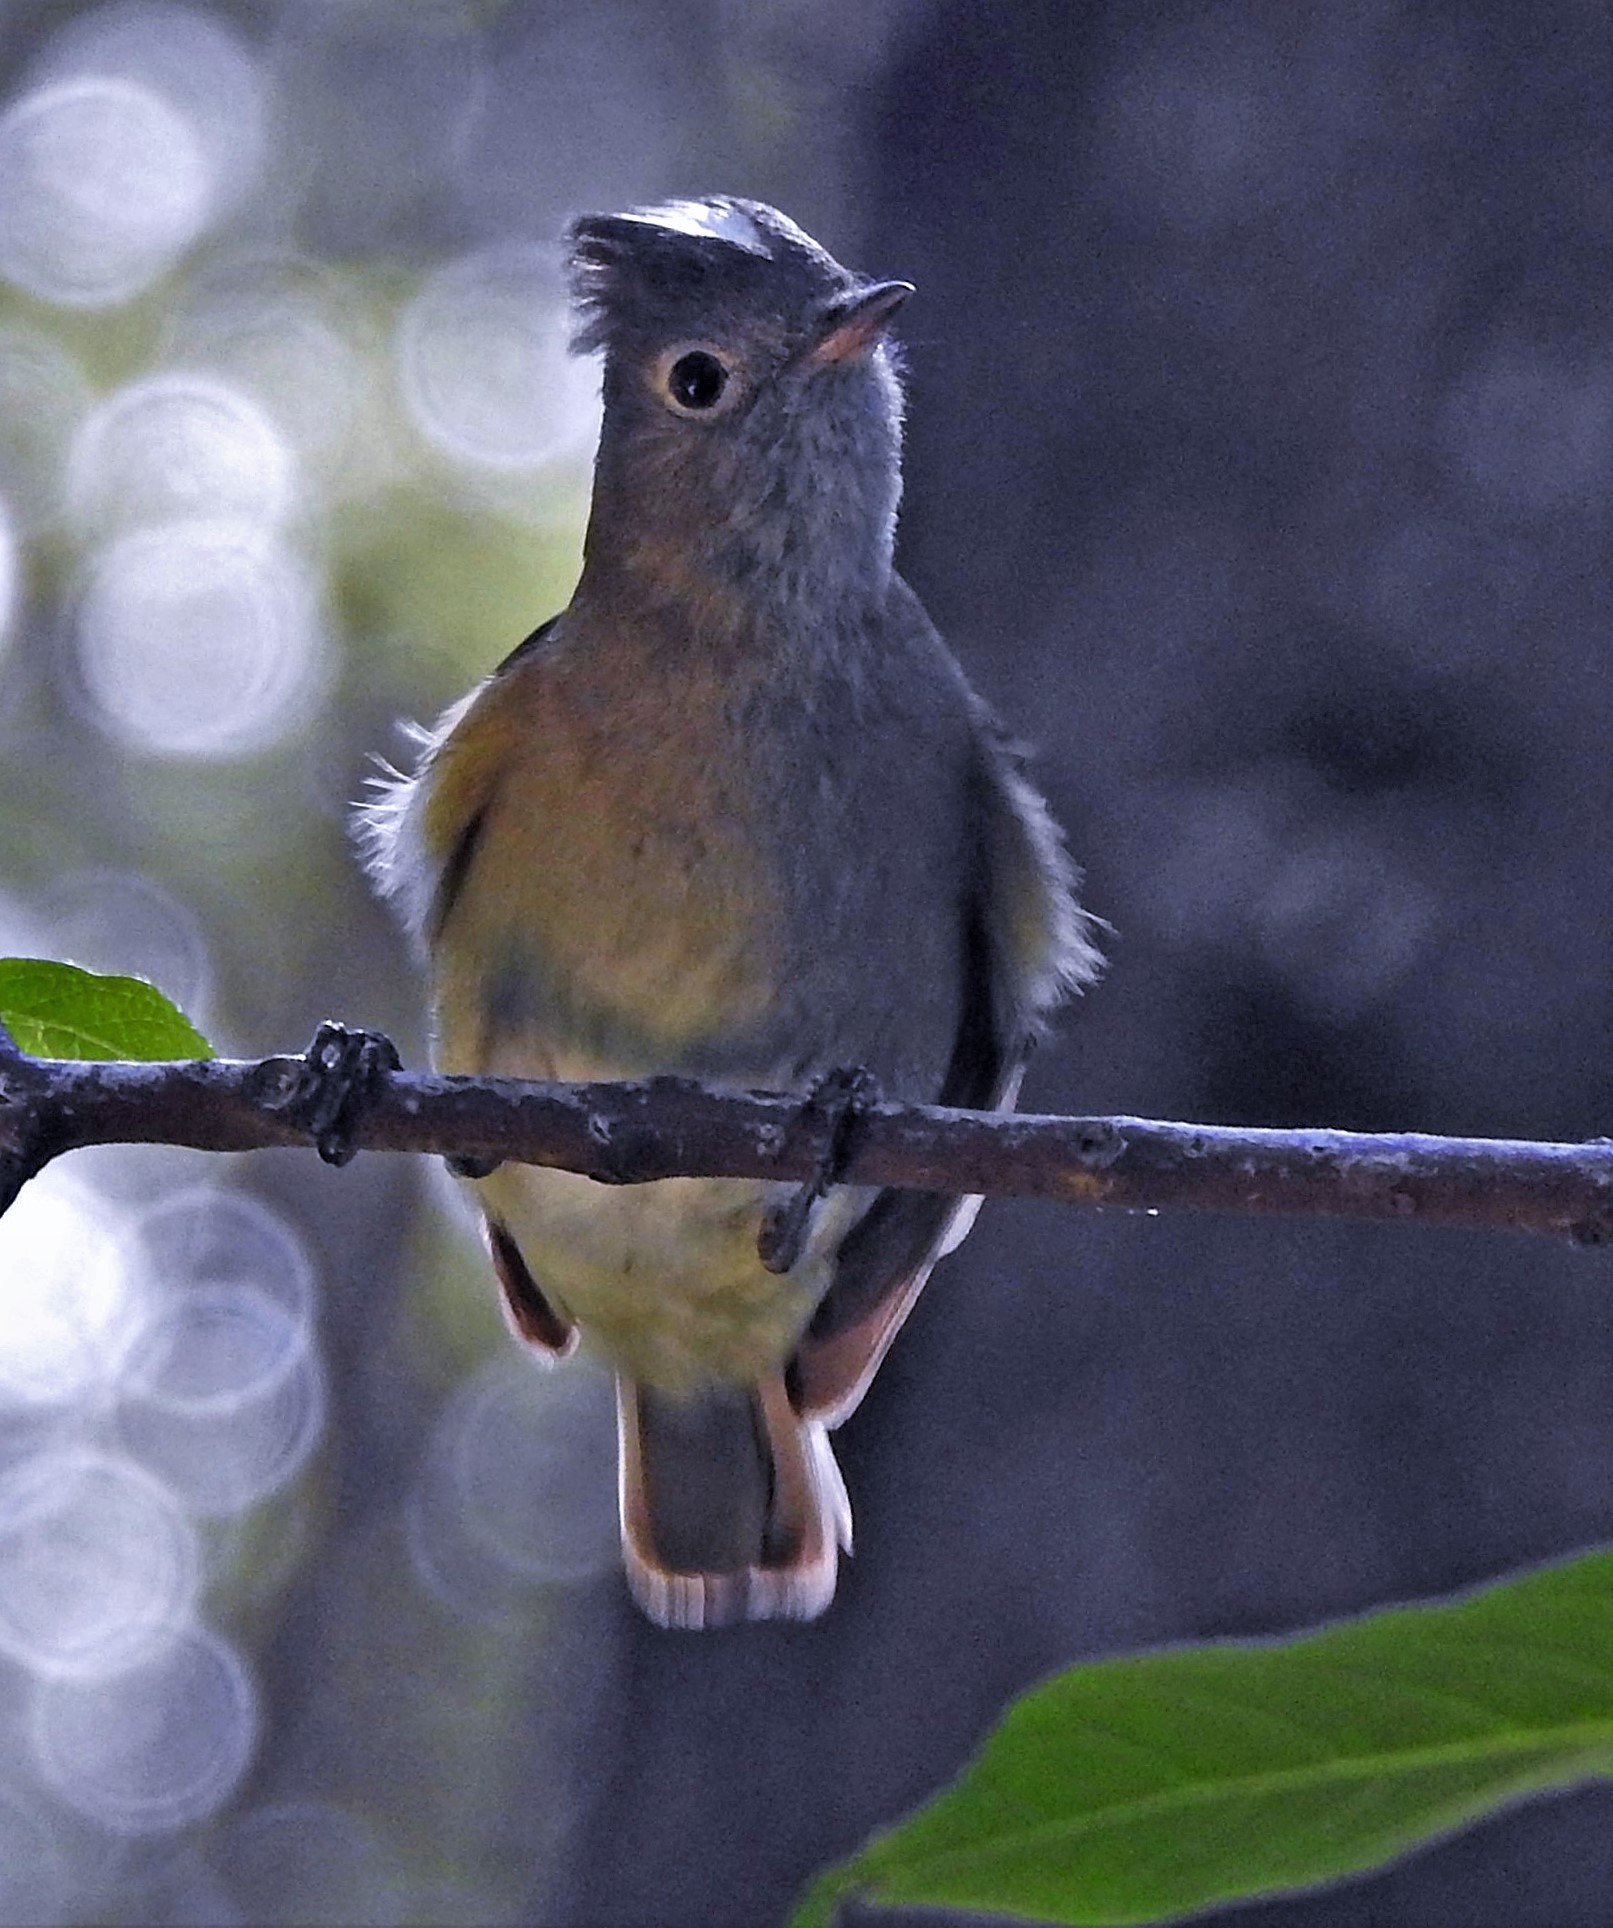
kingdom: Animalia
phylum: Chordata
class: Aves
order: Passeriformes
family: Tyrannidae
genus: Elaenia
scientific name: Elaenia albiceps
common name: White-crested elaenia
